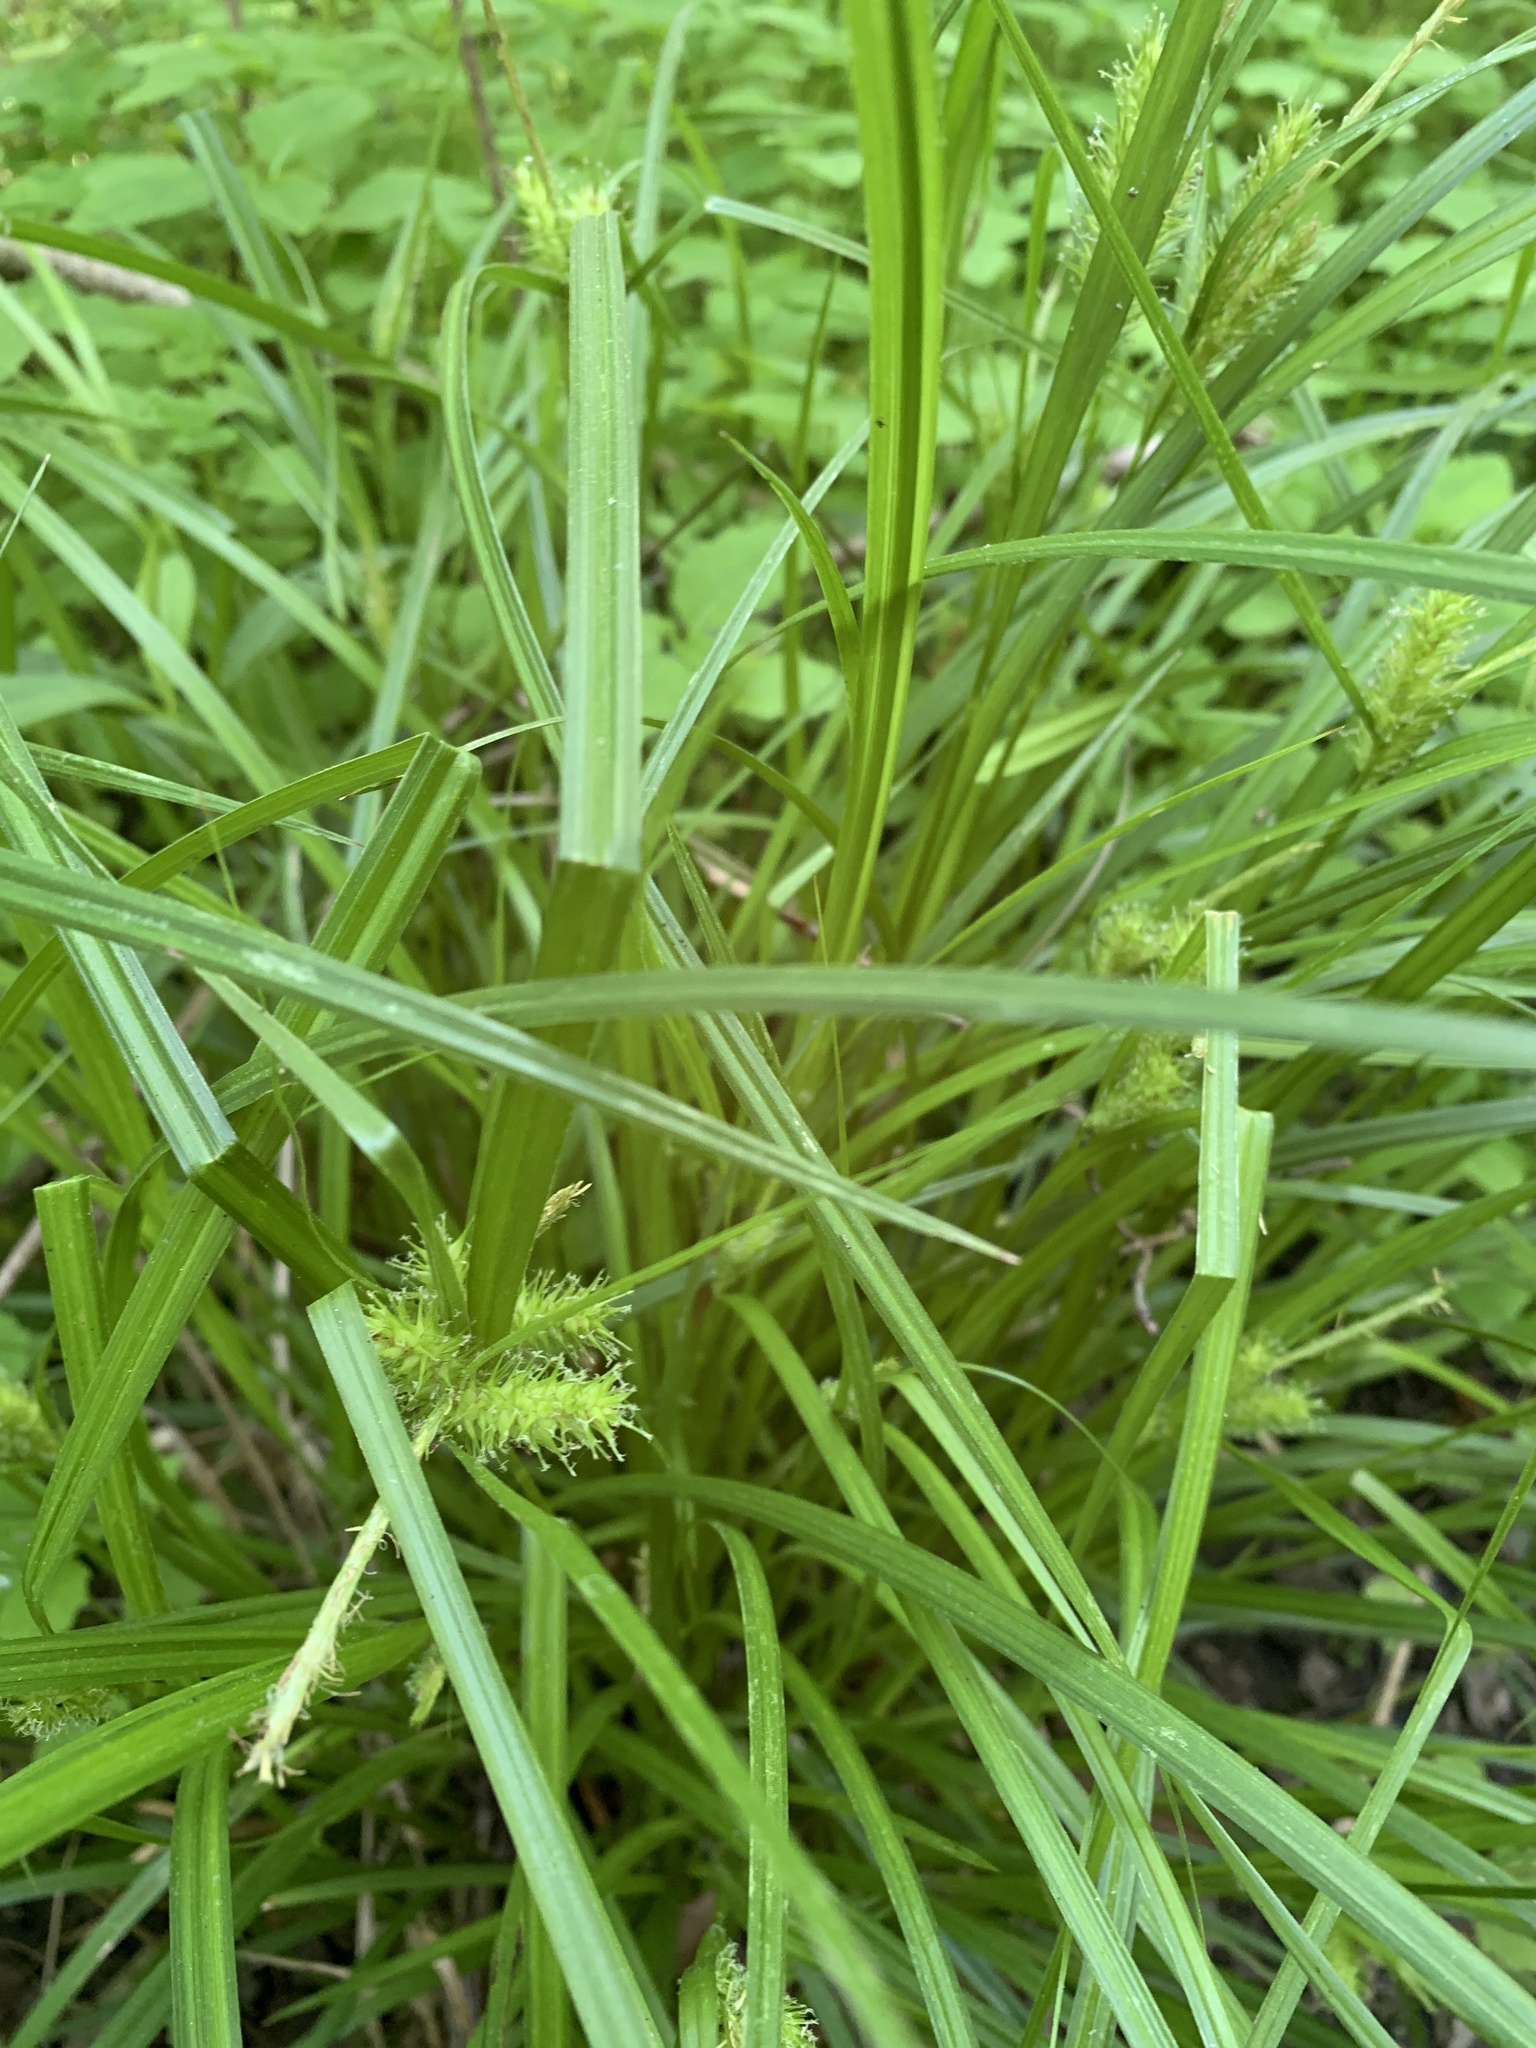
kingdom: Plantae
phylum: Tracheophyta
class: Liliopsida
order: Poales
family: Cyperaceae
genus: Carex
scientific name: Carex lurida
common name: Sallow sedge
